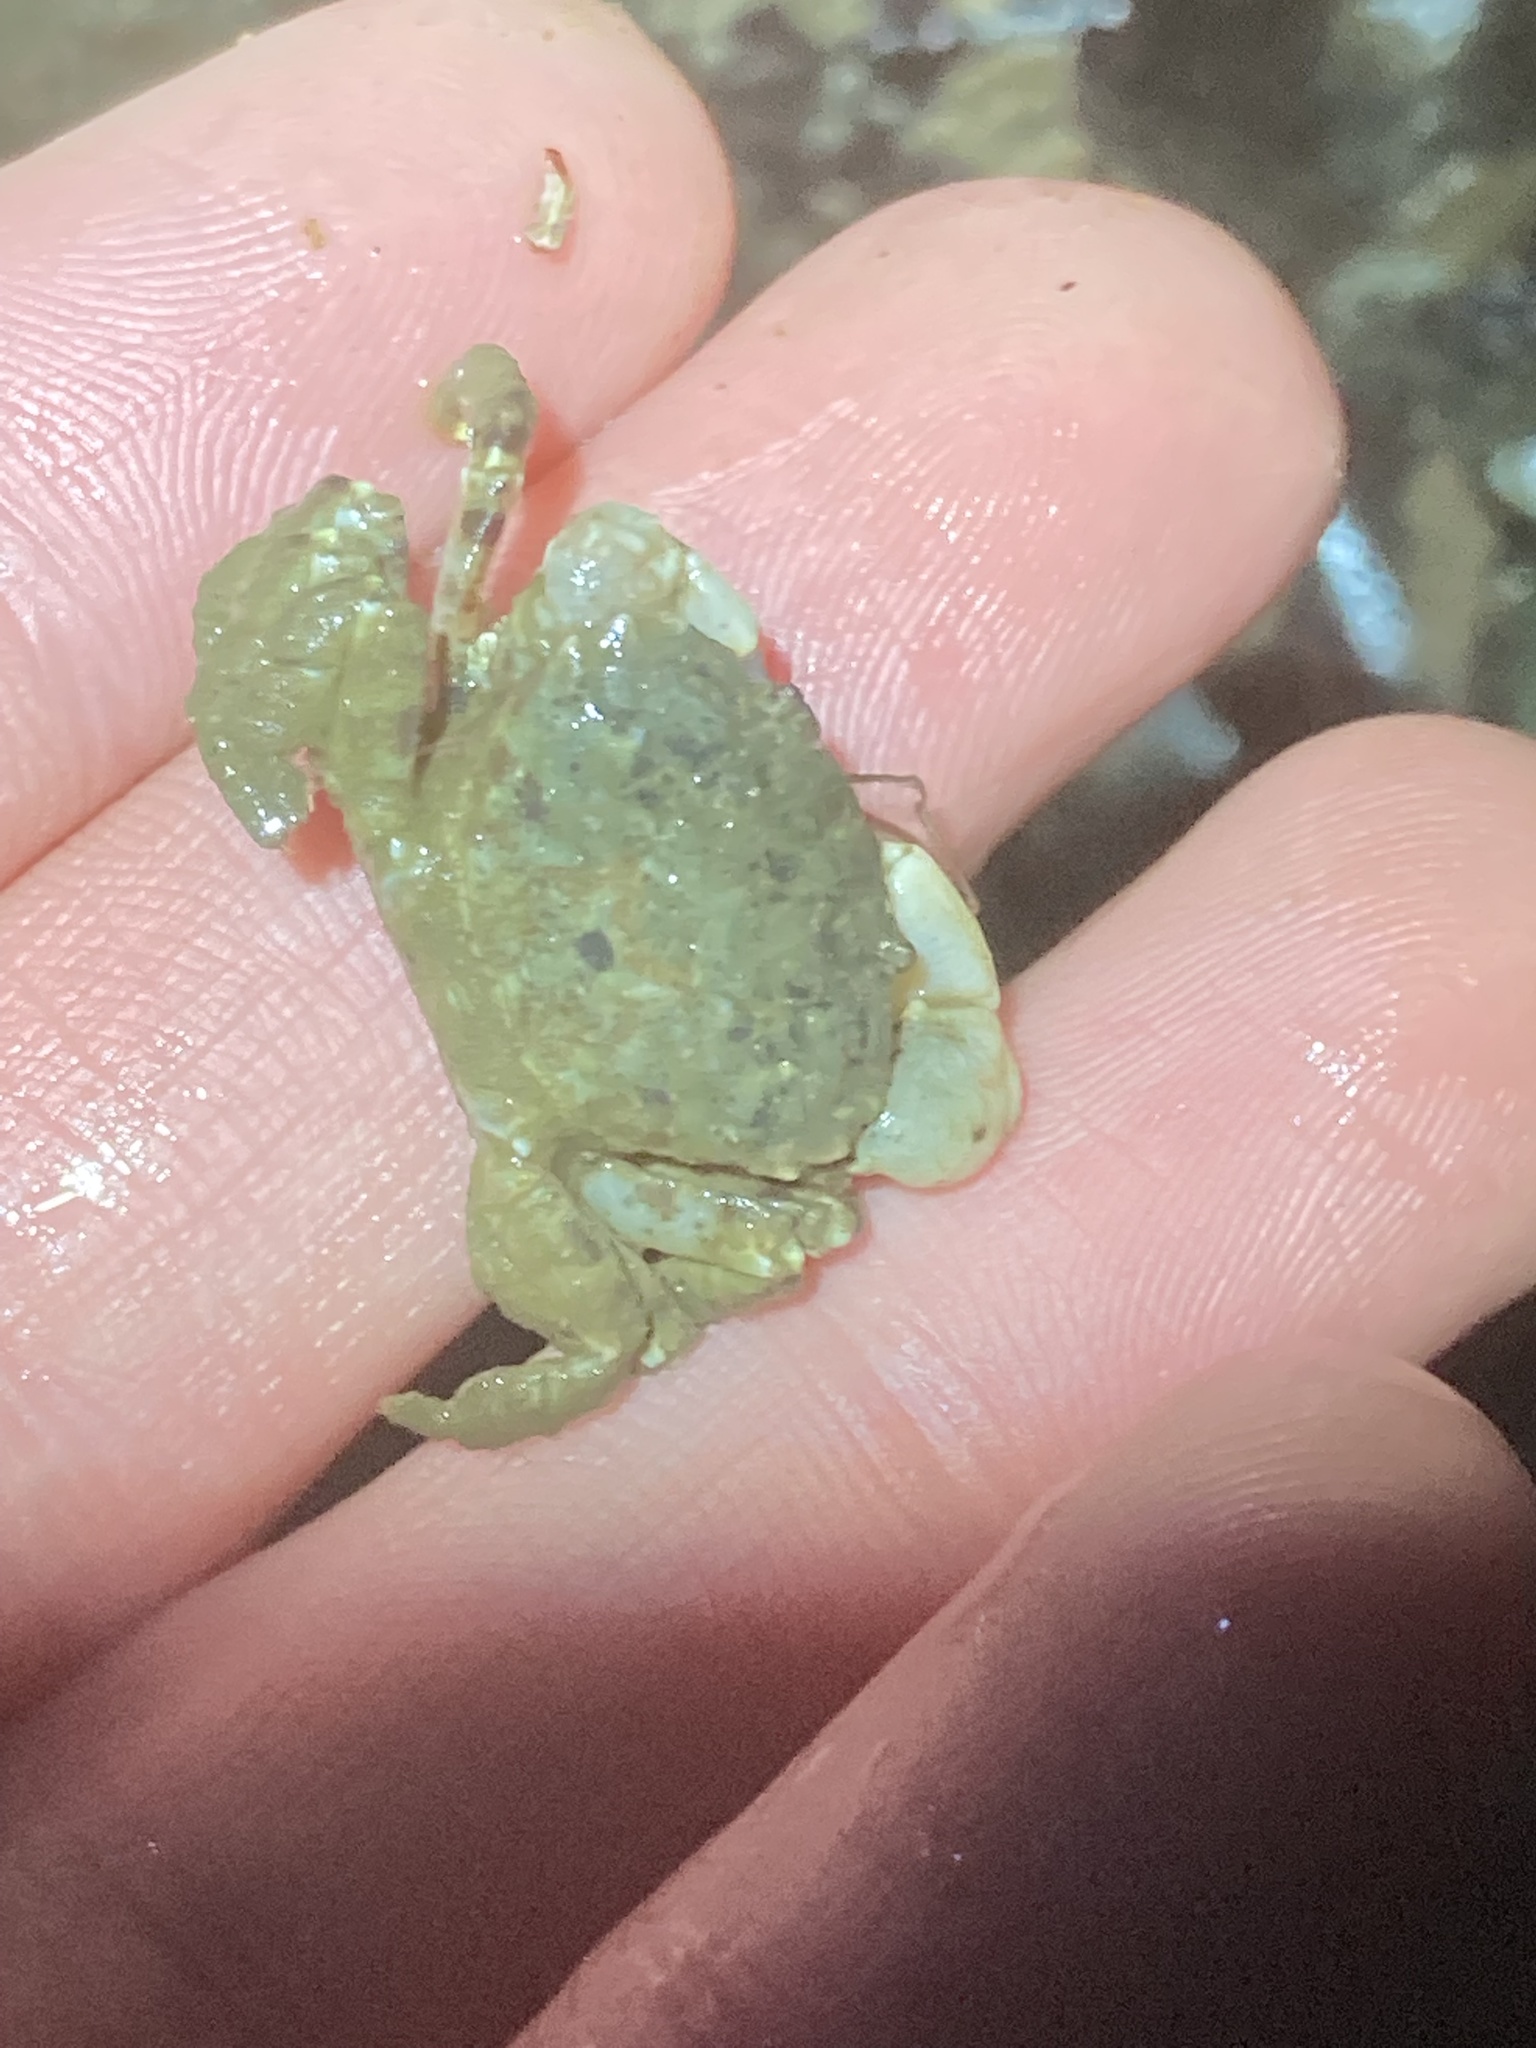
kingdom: Animalia
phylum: Arthropoda
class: Malacostraca
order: Decapoda
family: Panopeidae
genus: Lophopanopeus
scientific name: Lophopanopeus bellus
